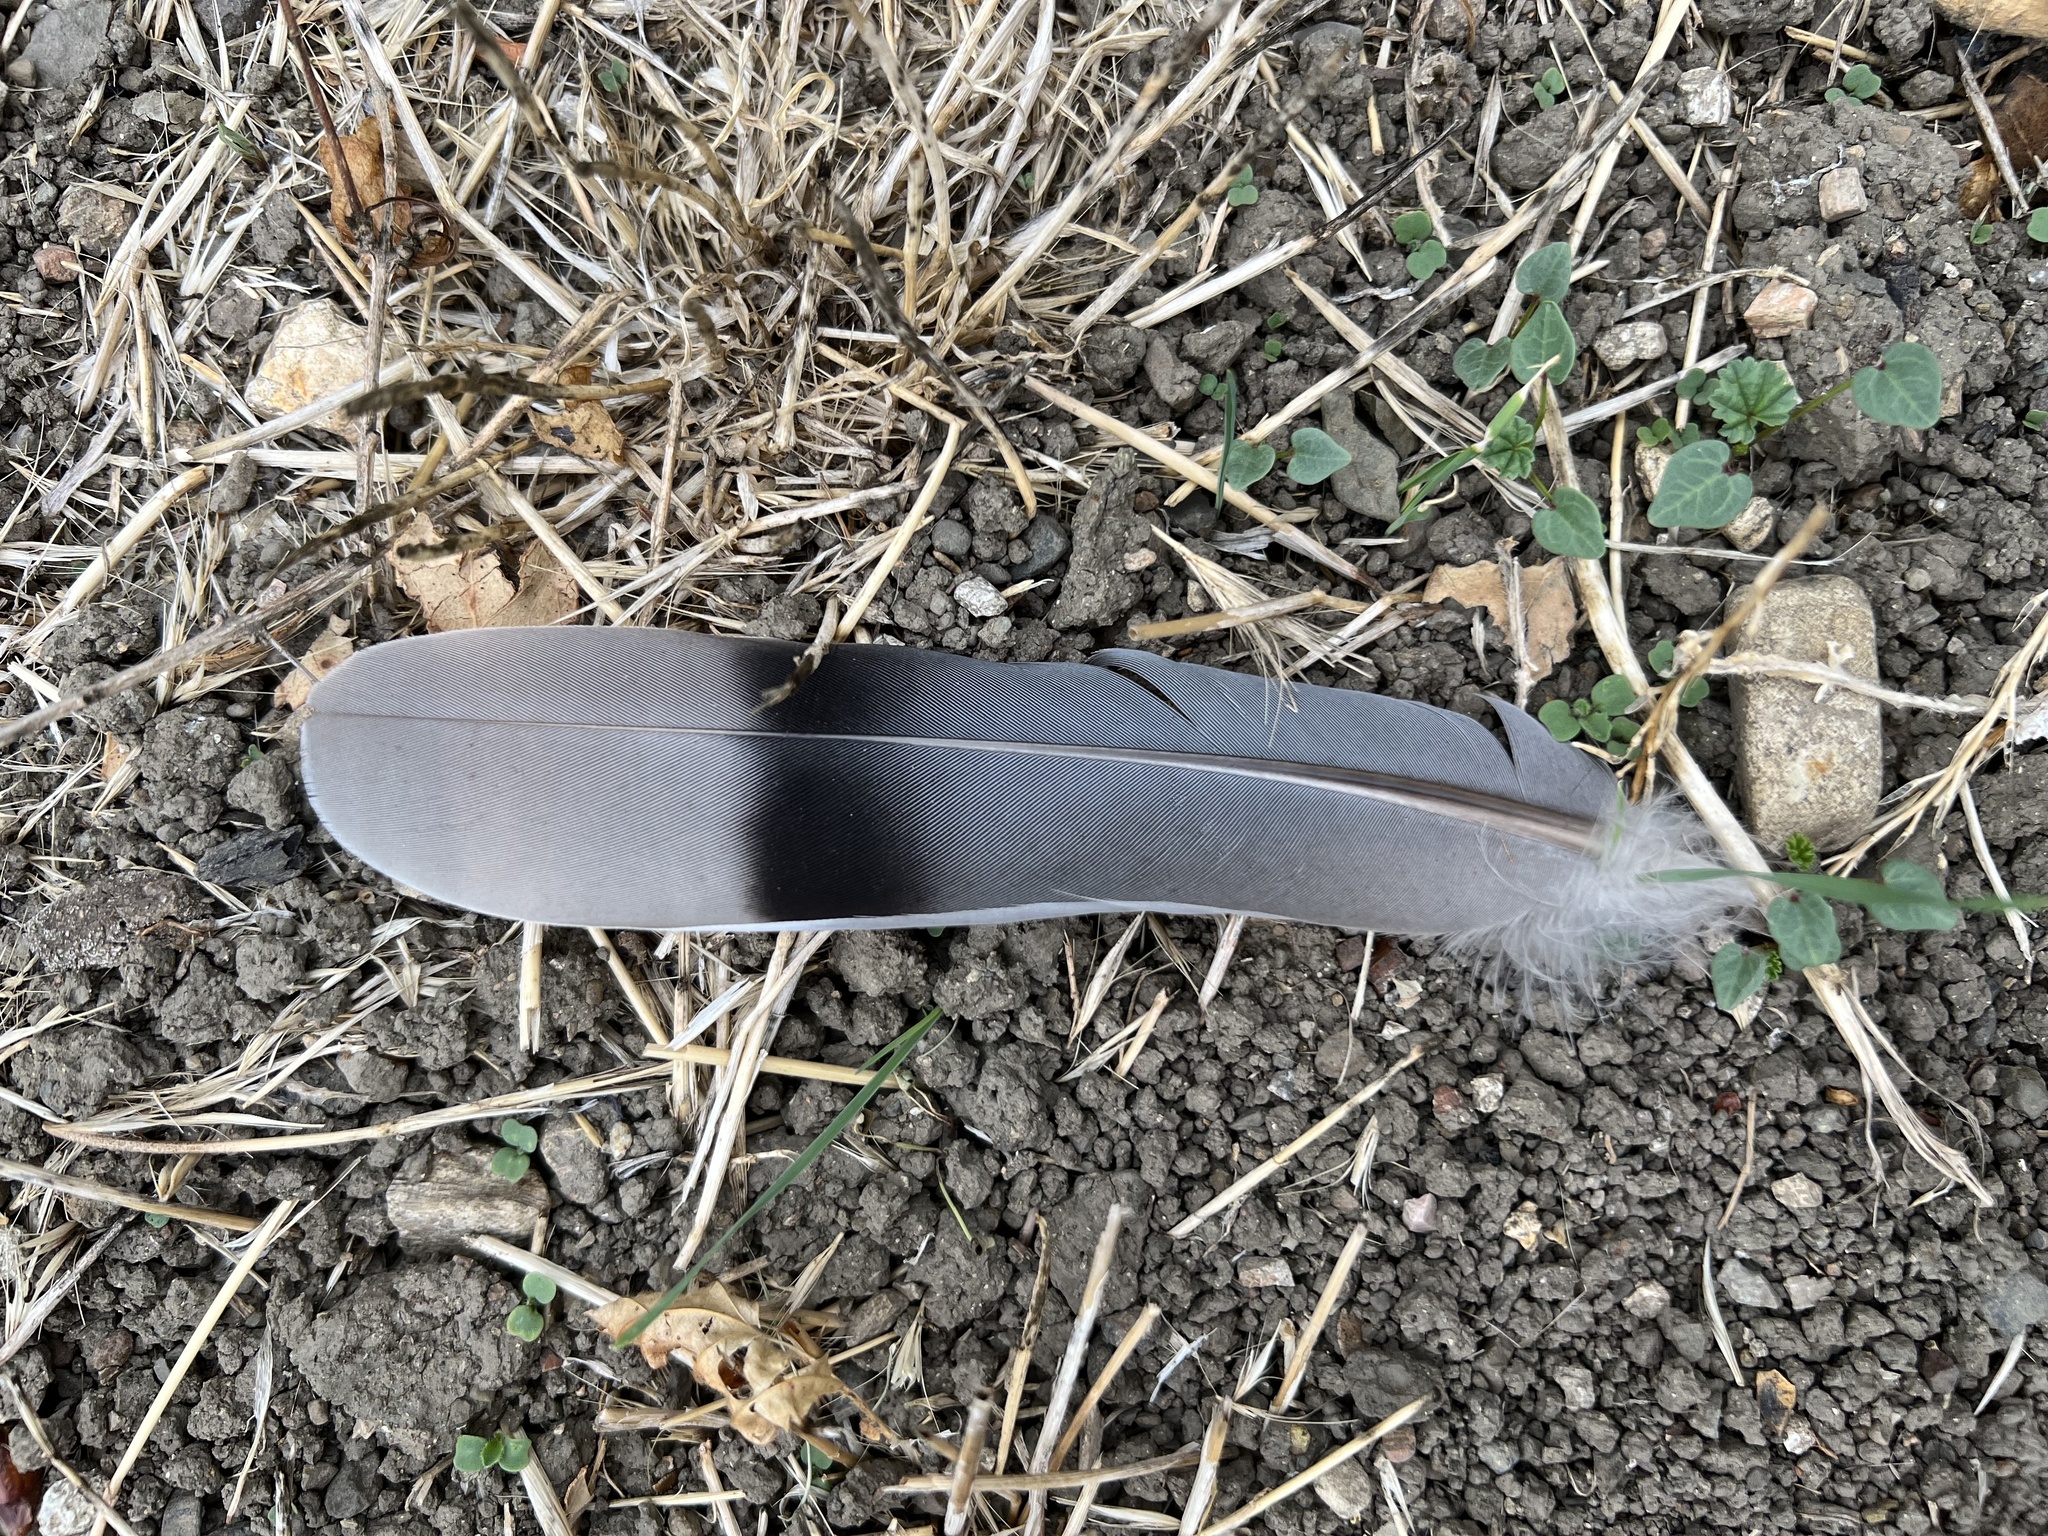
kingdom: Animalia
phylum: Chordata
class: Aves
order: Columbiformes
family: Columbidae
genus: Patagioenas
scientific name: Patagioenas fasciata
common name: Band-tailed pigeon
